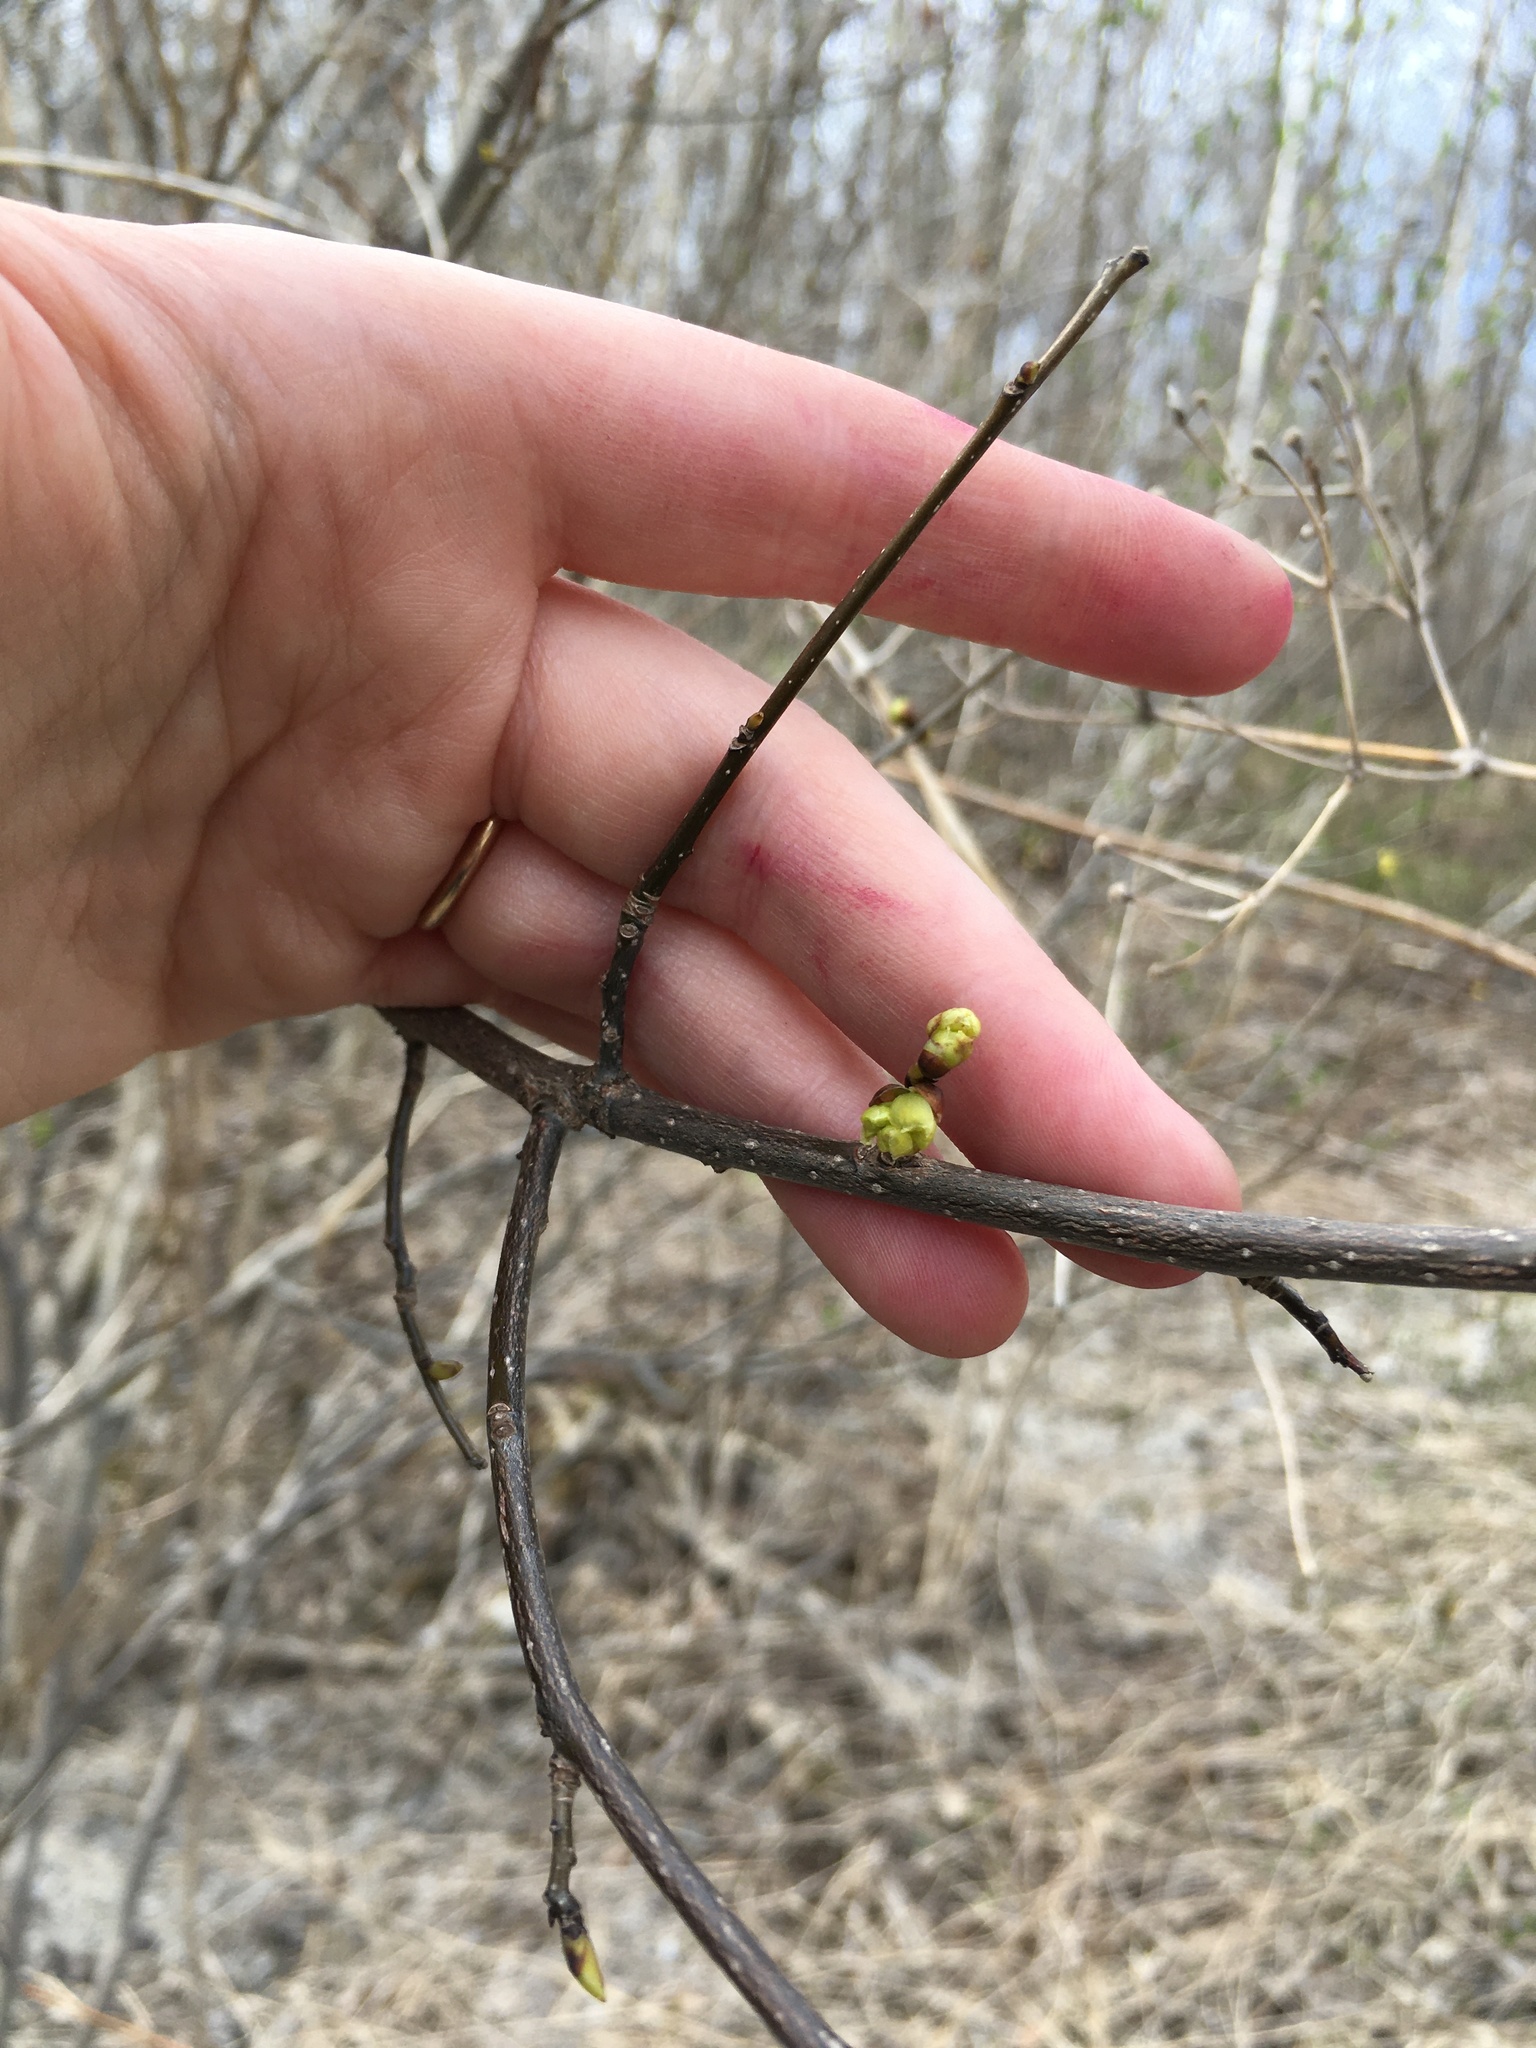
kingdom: Plantae
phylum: Tracheophyta
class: Magnoliopsida
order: Laurales
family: Lauraceae
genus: Lindera
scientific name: Lindera benzoin
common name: Spicebush
